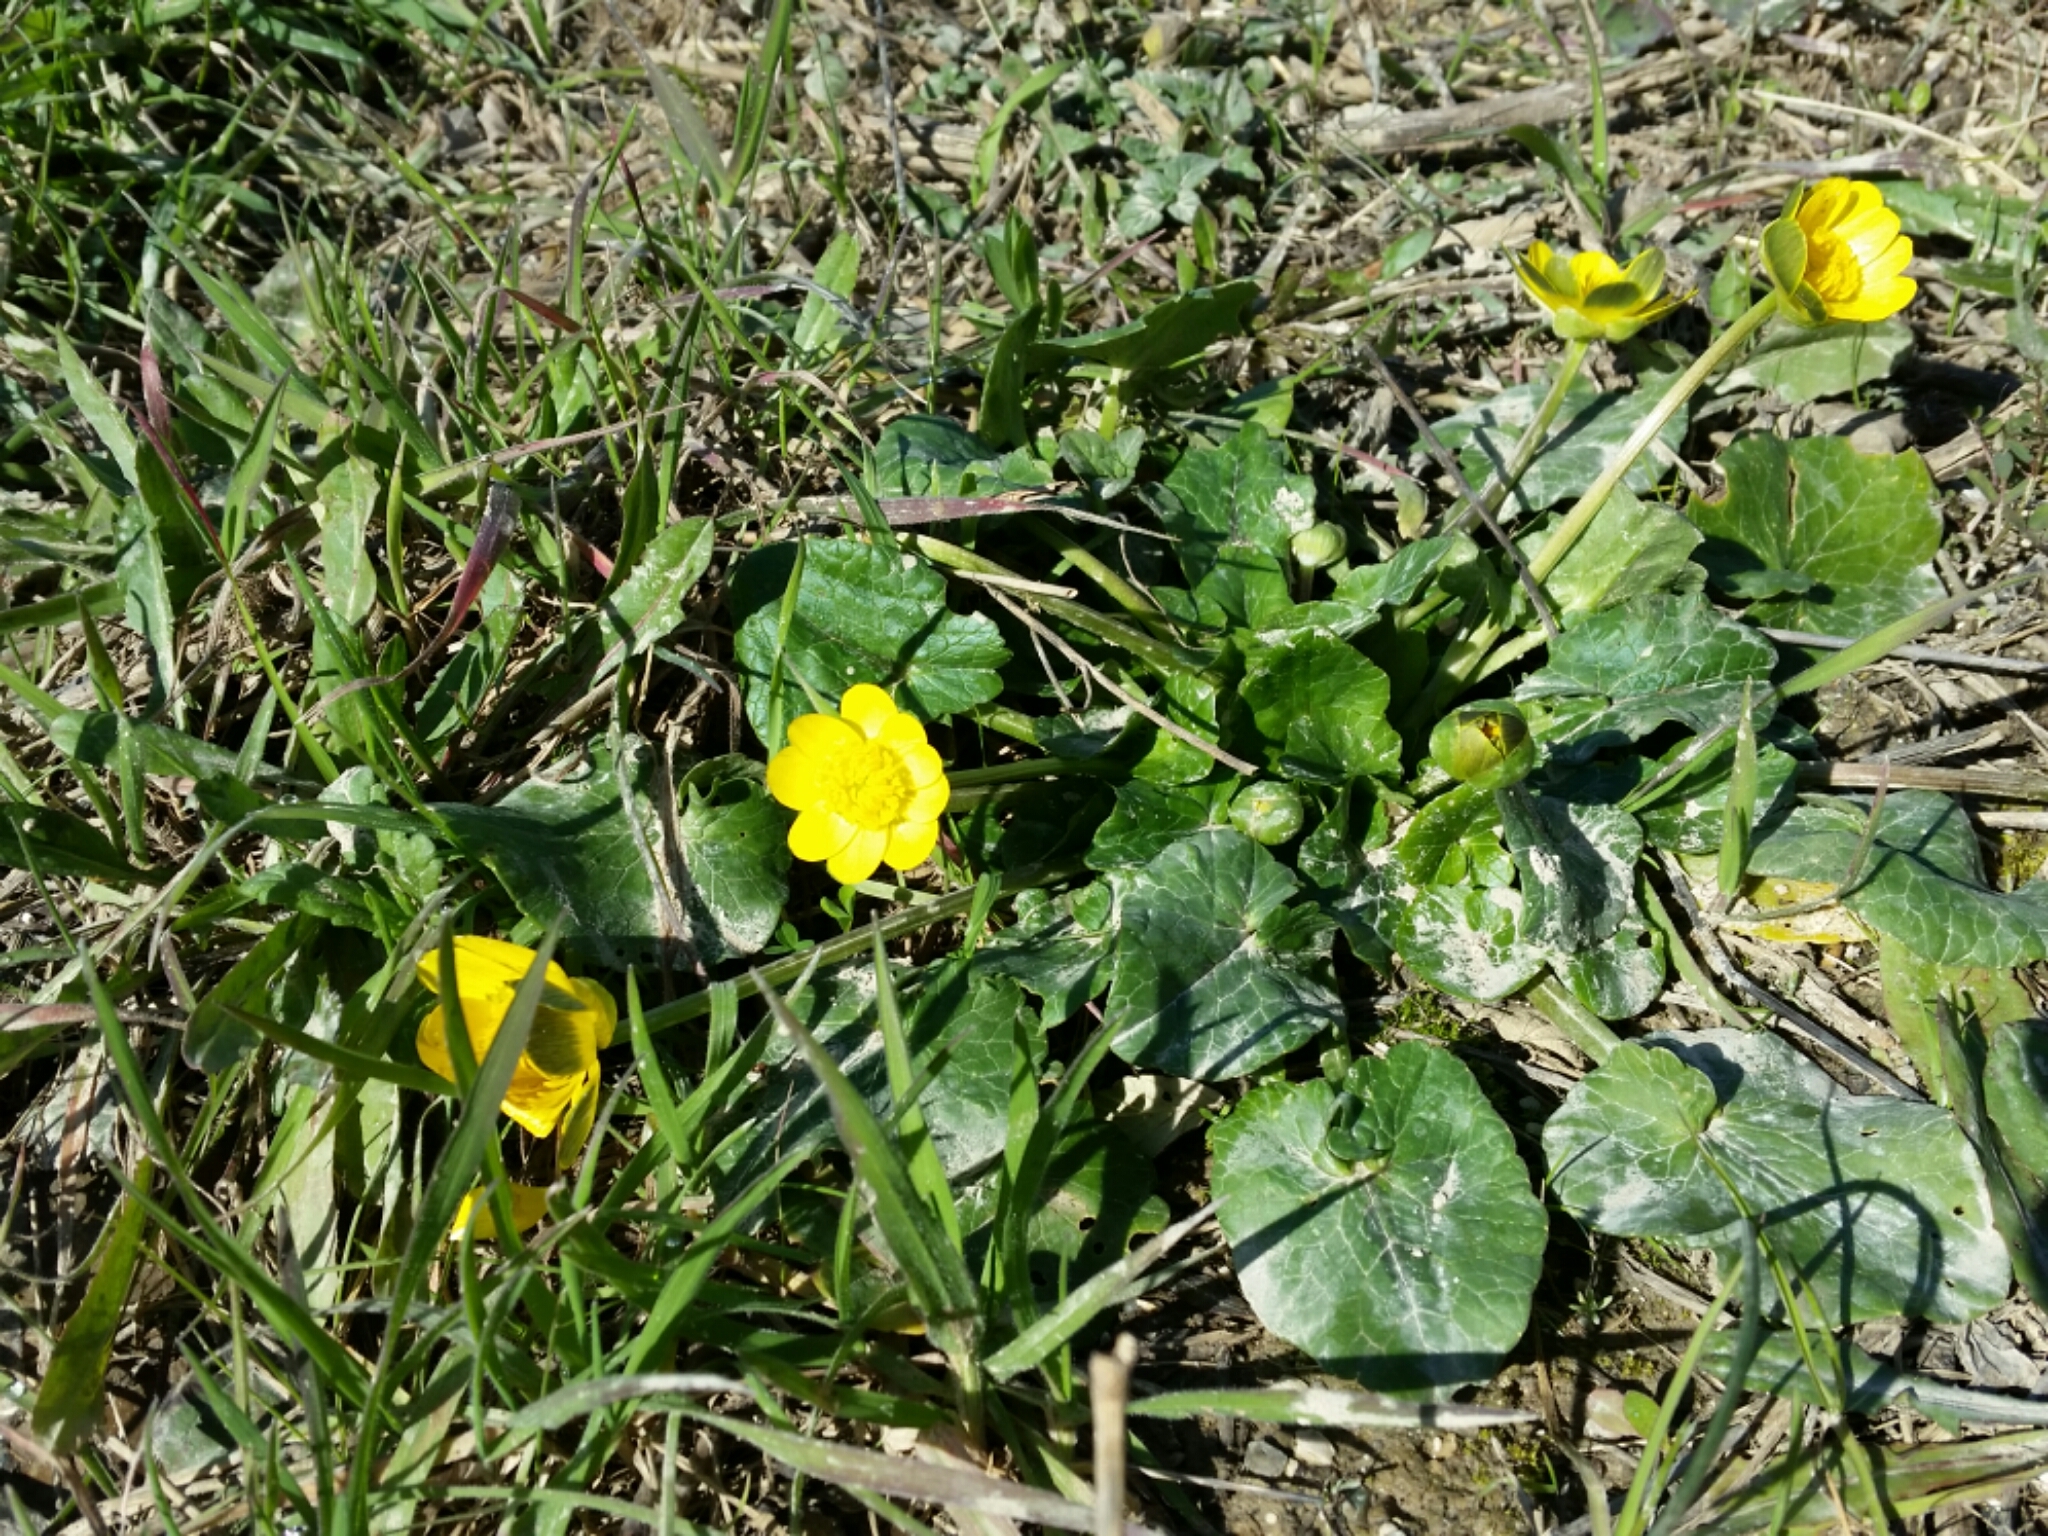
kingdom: Plantae
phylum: Tracheophyta
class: Magnoliopsida
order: Ranunculales
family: Ranunculaceae
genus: Ficaria
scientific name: Ficaria verna
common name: Lesser celandine
